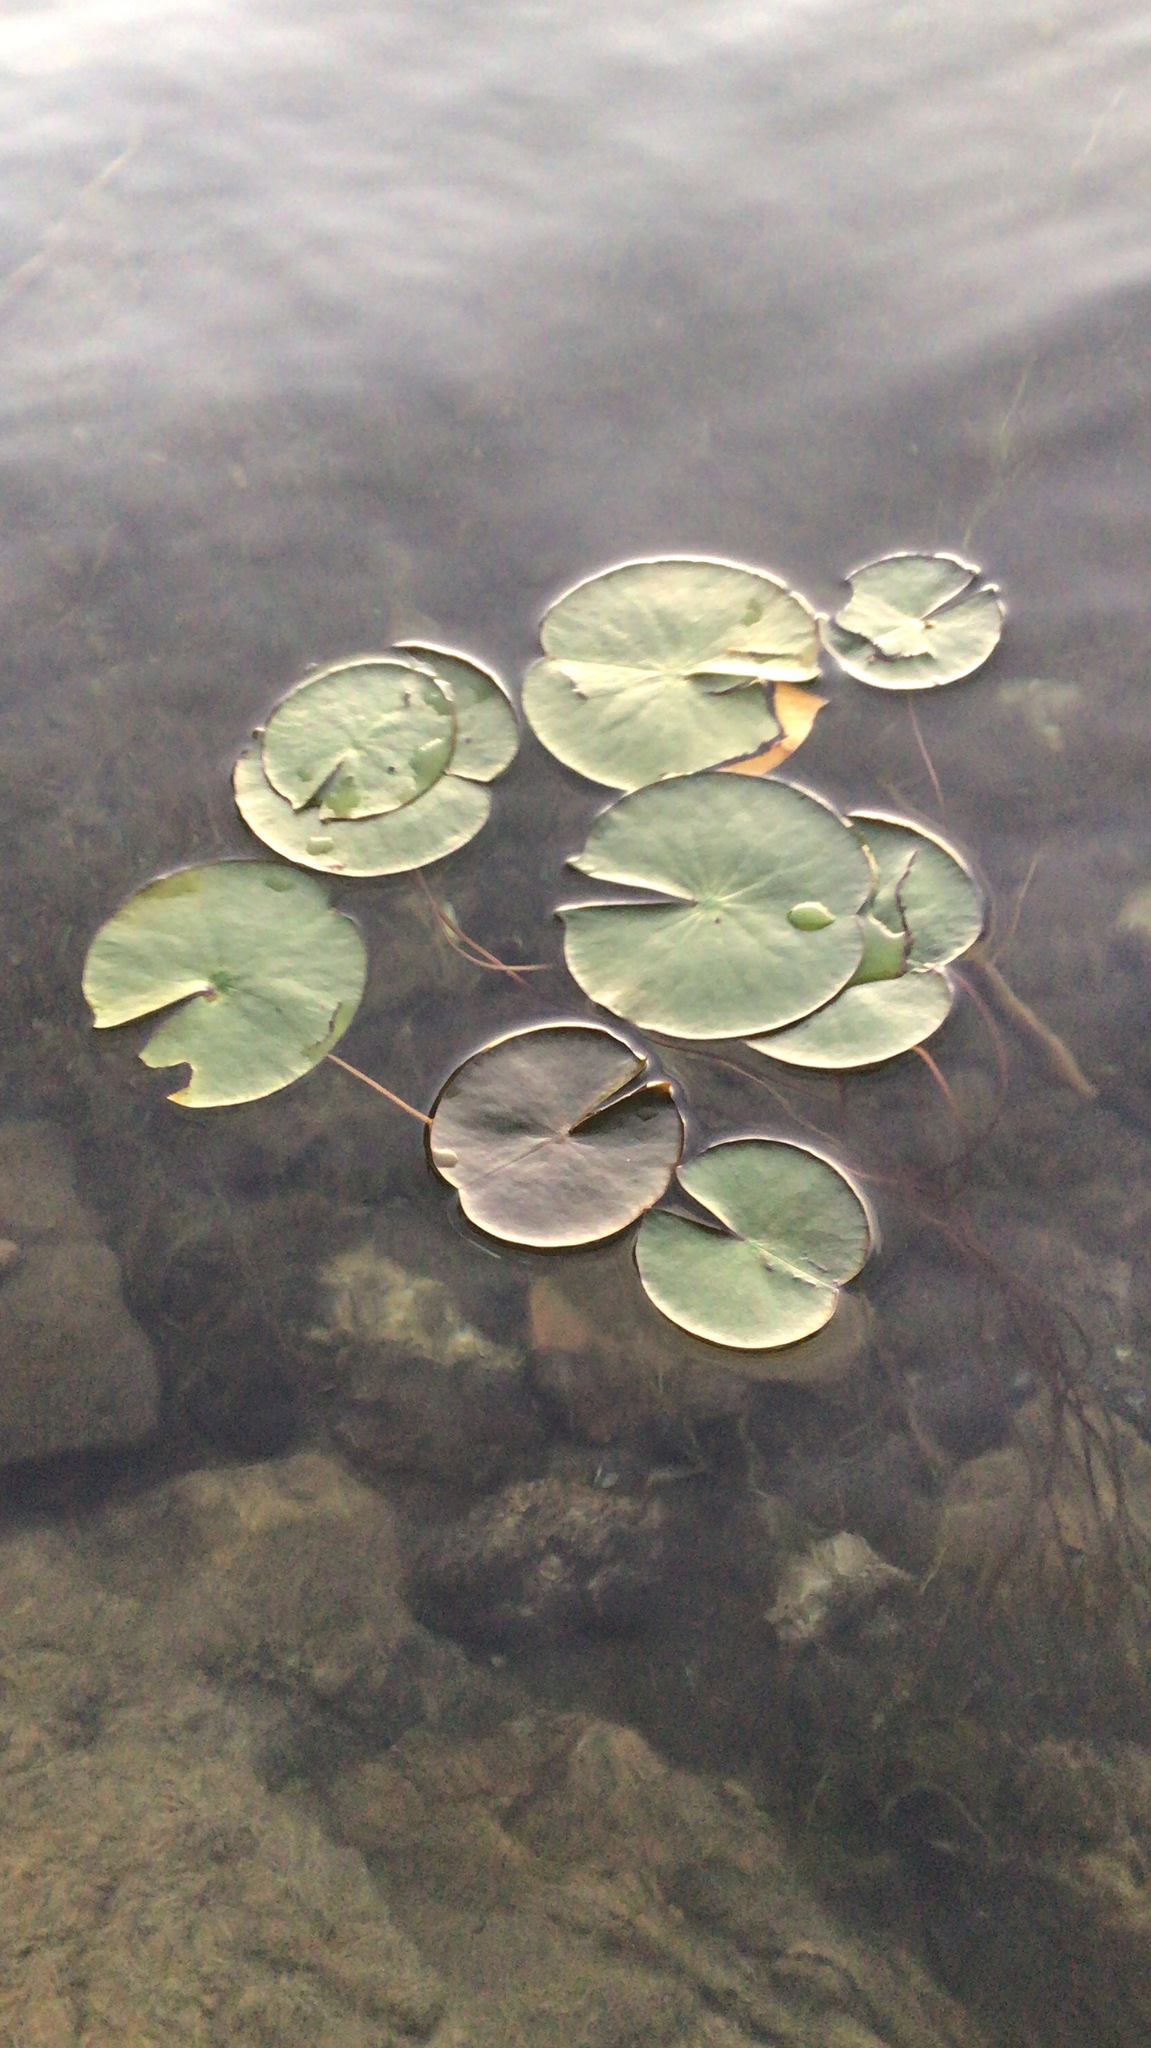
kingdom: Plantae
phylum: Tracheophyta
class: Magnoliopsida
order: Nymphaeales
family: Nymphaeaceae
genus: Nymphaea
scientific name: Nymphaea odorata
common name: Fragrant water-lily
